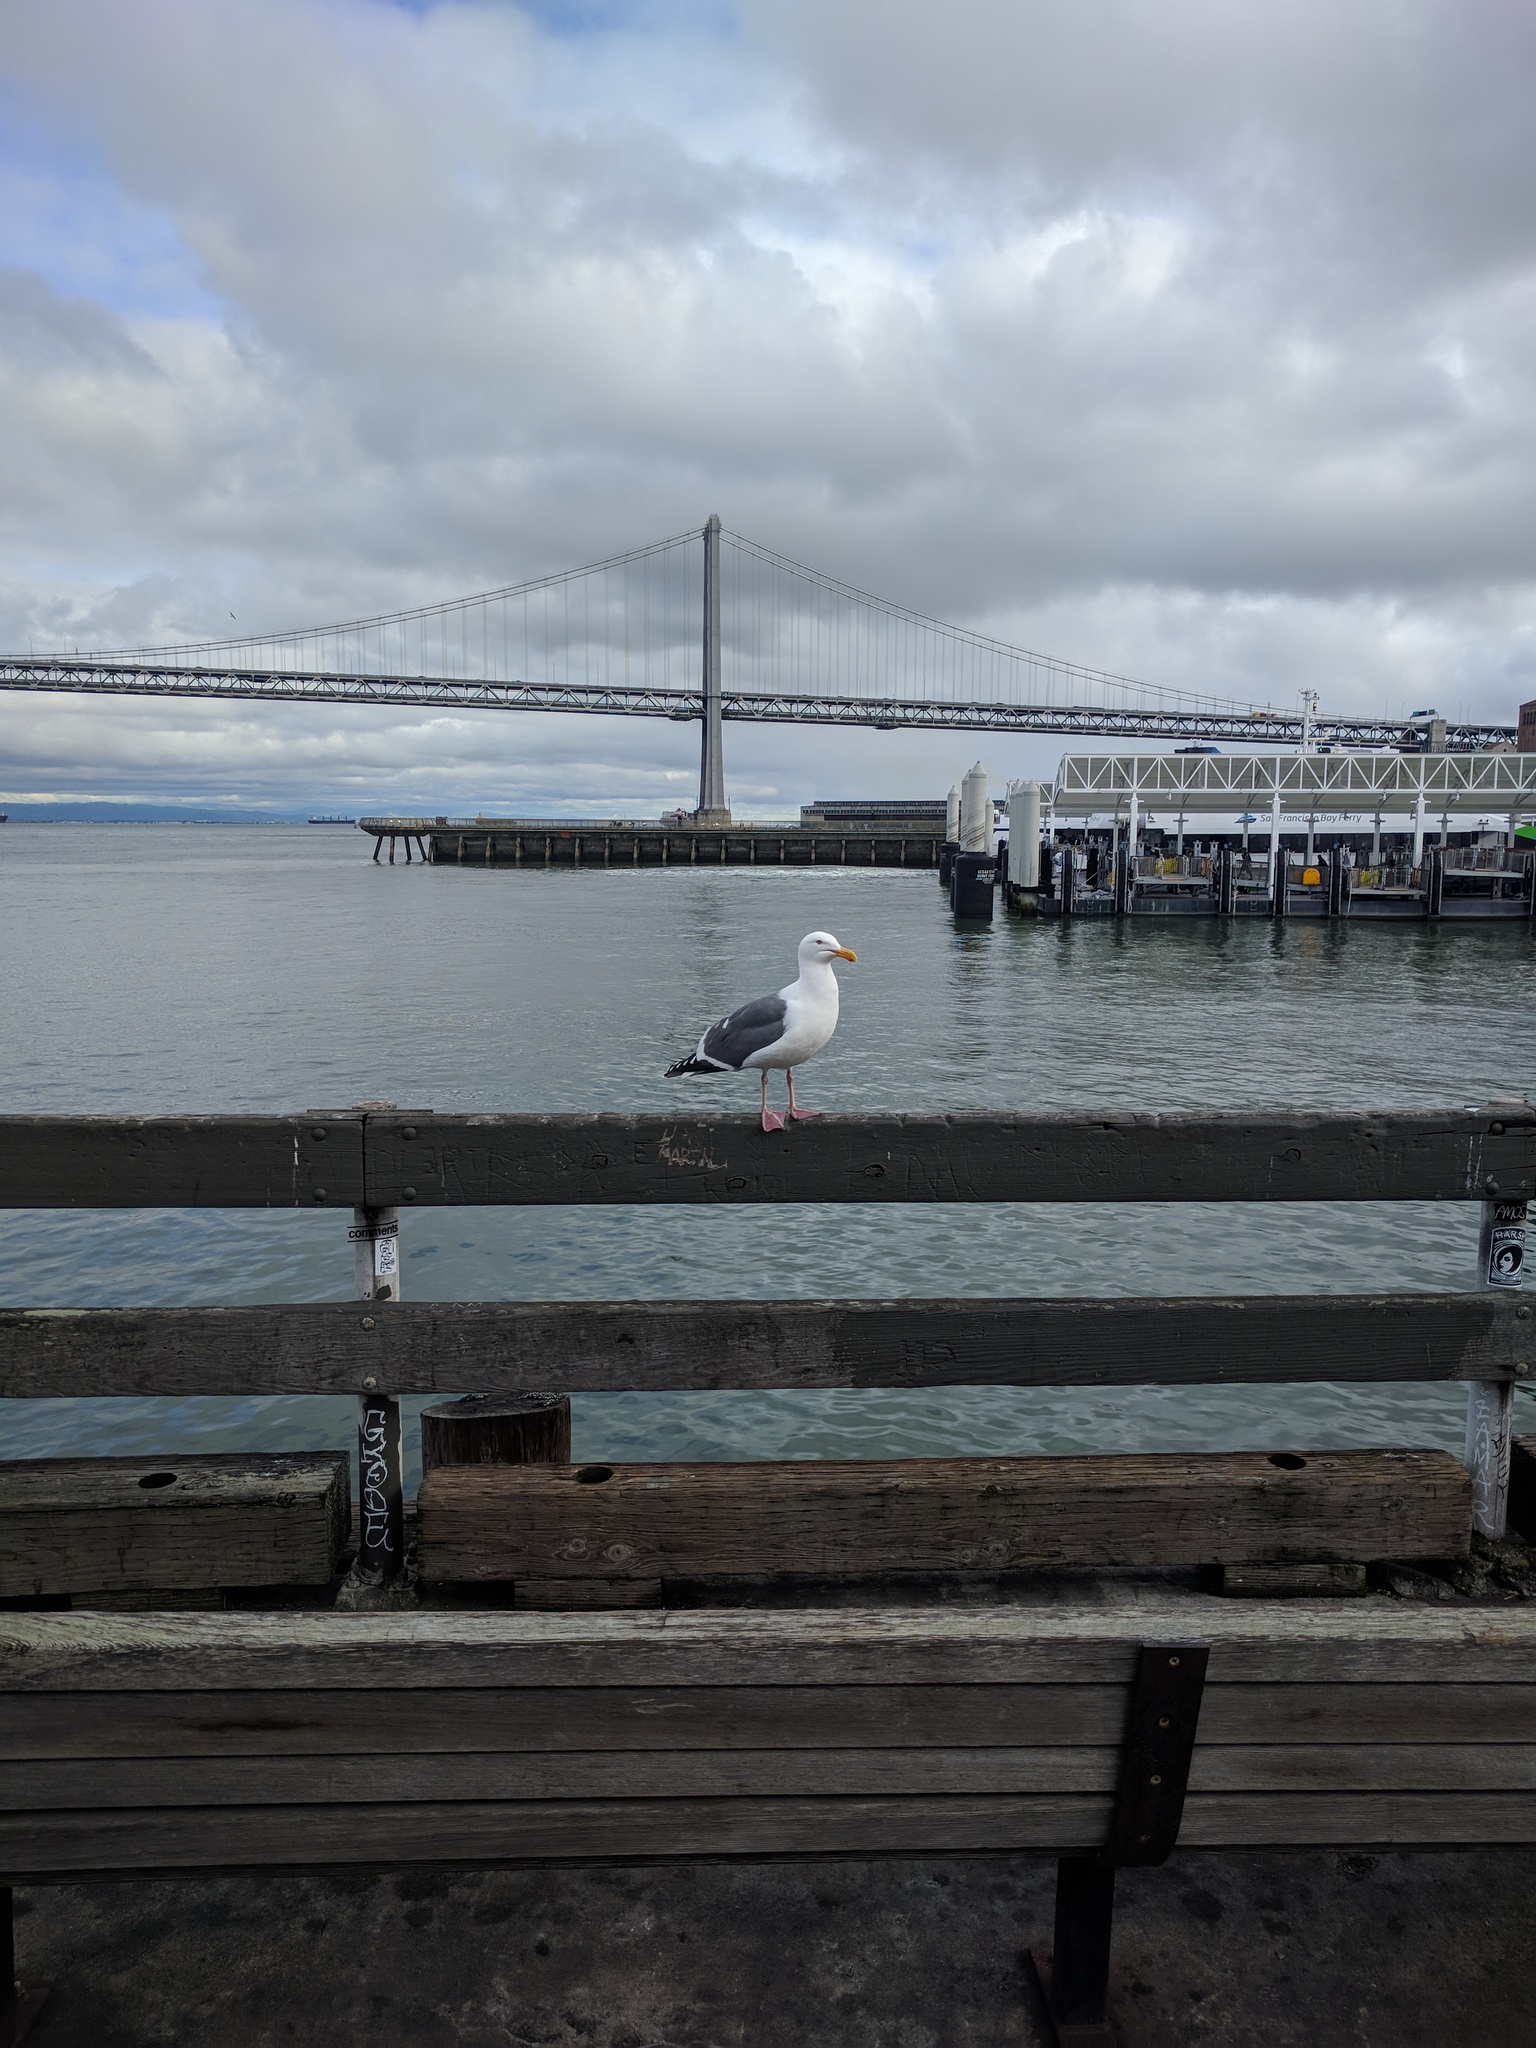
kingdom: Animalia
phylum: Chordata
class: Aves
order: Charadriiformes
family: Laridae
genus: Larus
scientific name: Larus occidentalis
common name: Western gull
